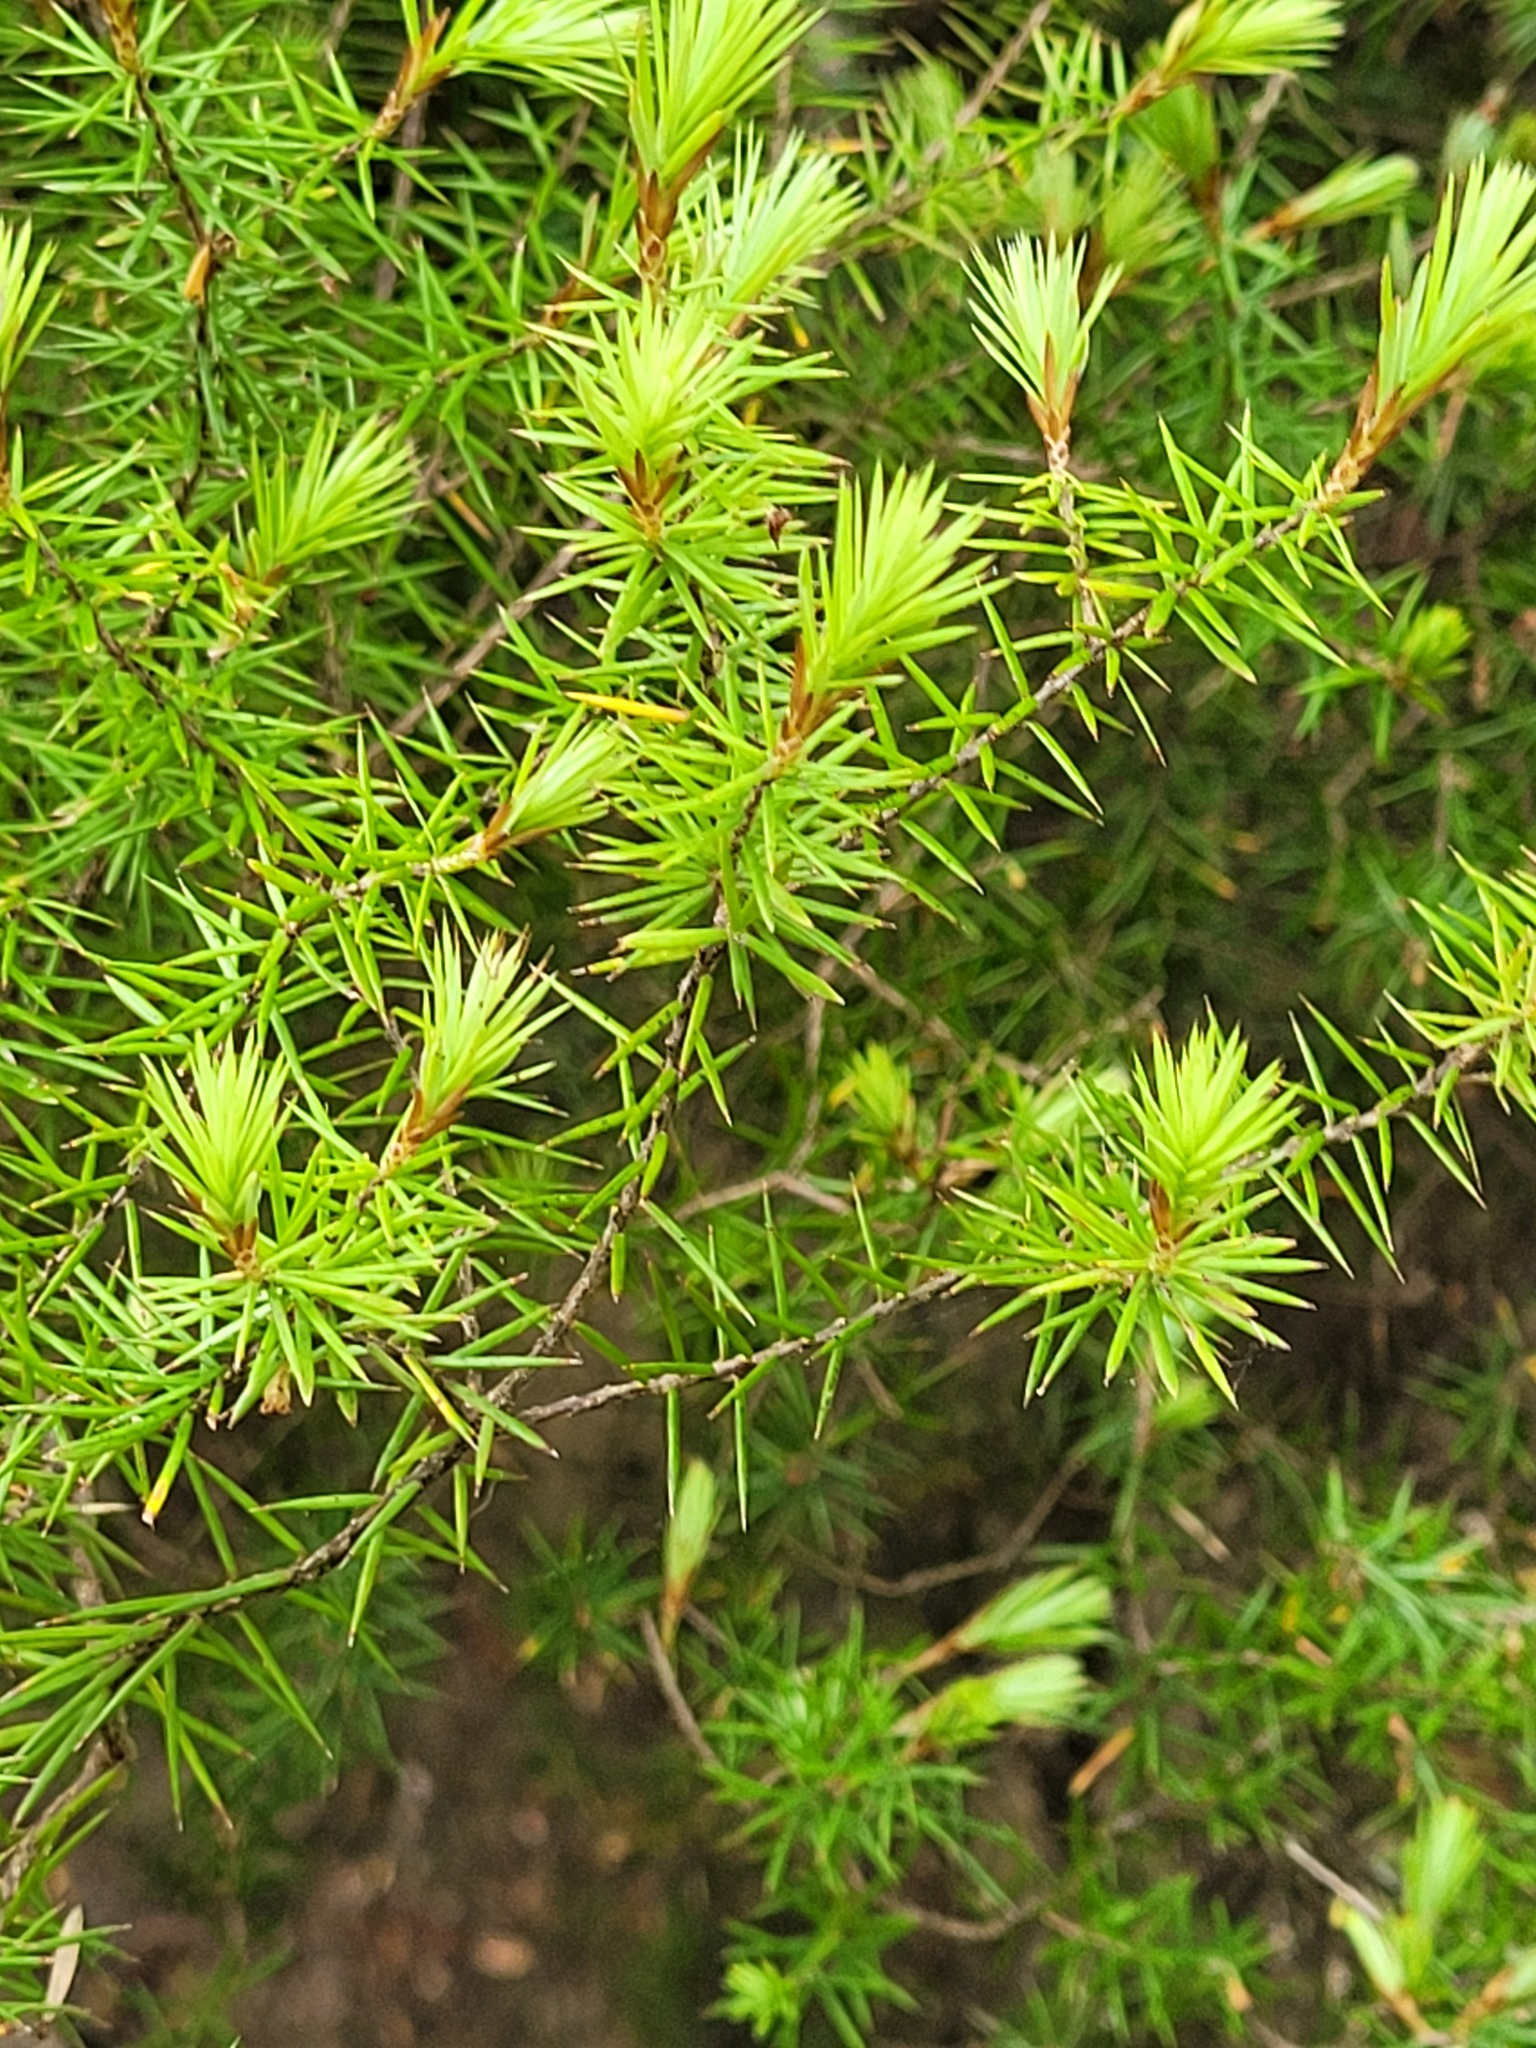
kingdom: Plantae
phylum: Tracheophyta
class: Magnoliopsida
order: Ericales
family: Ericaceae
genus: Leptecophylla
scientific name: Leptecophylla juniperina
